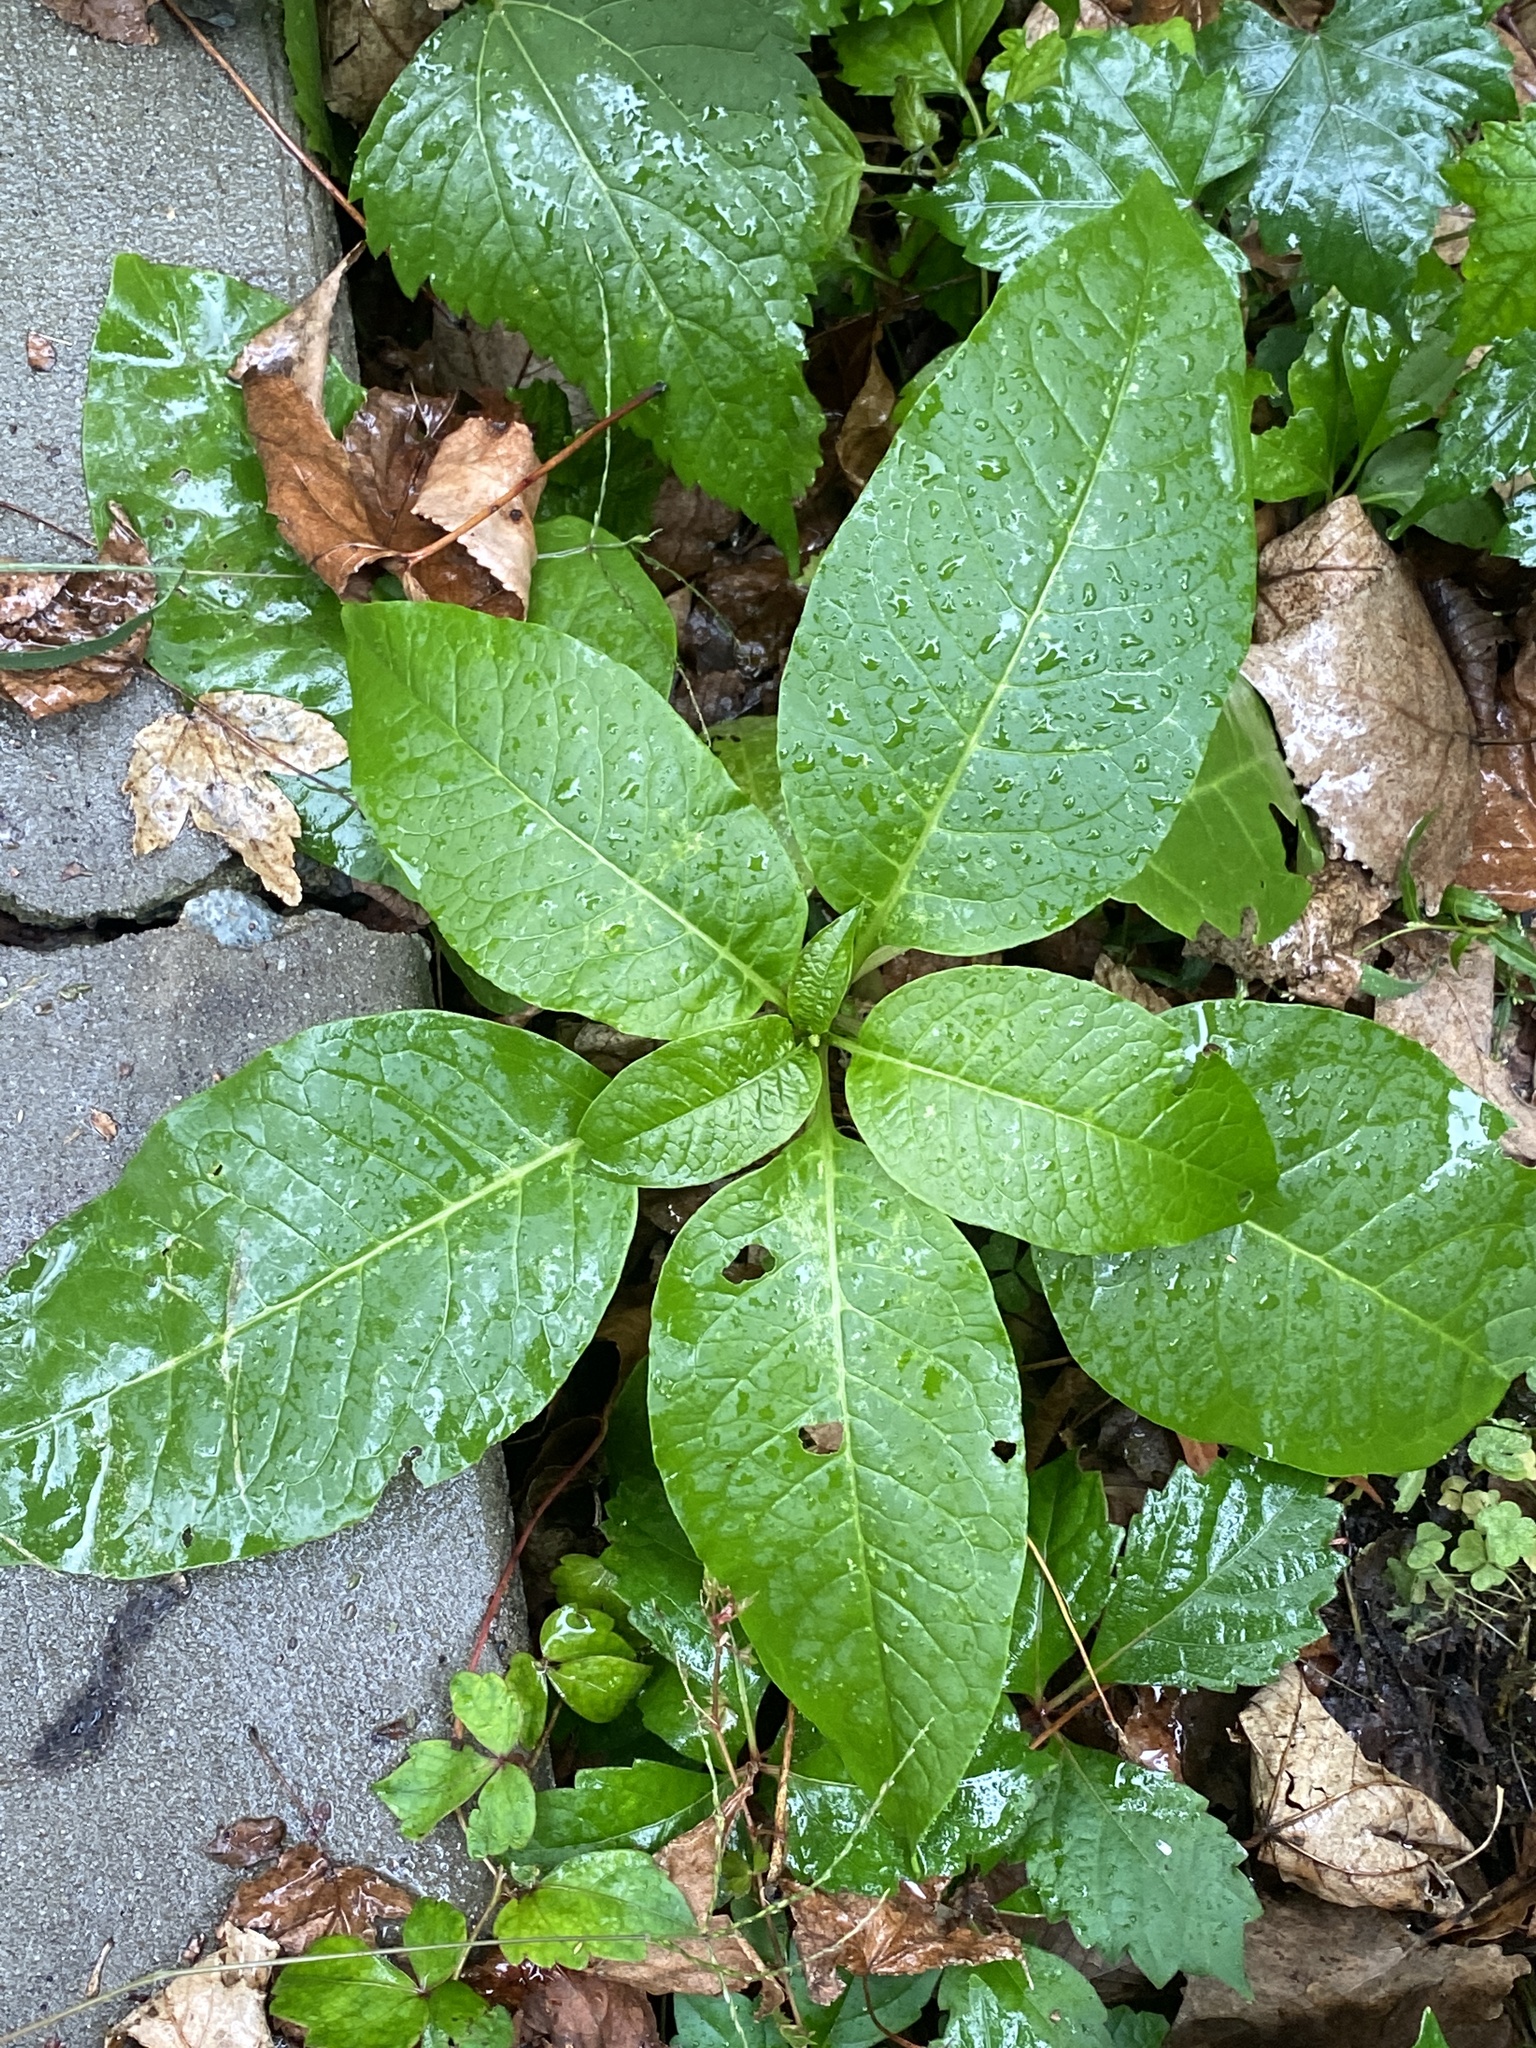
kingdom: Plantae
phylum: Tracheophyta
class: Magnoliopsida
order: Caryophyllales
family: Phytolaccaceae
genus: Phytolacca
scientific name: Phytolacca americana
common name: American pokeweed
